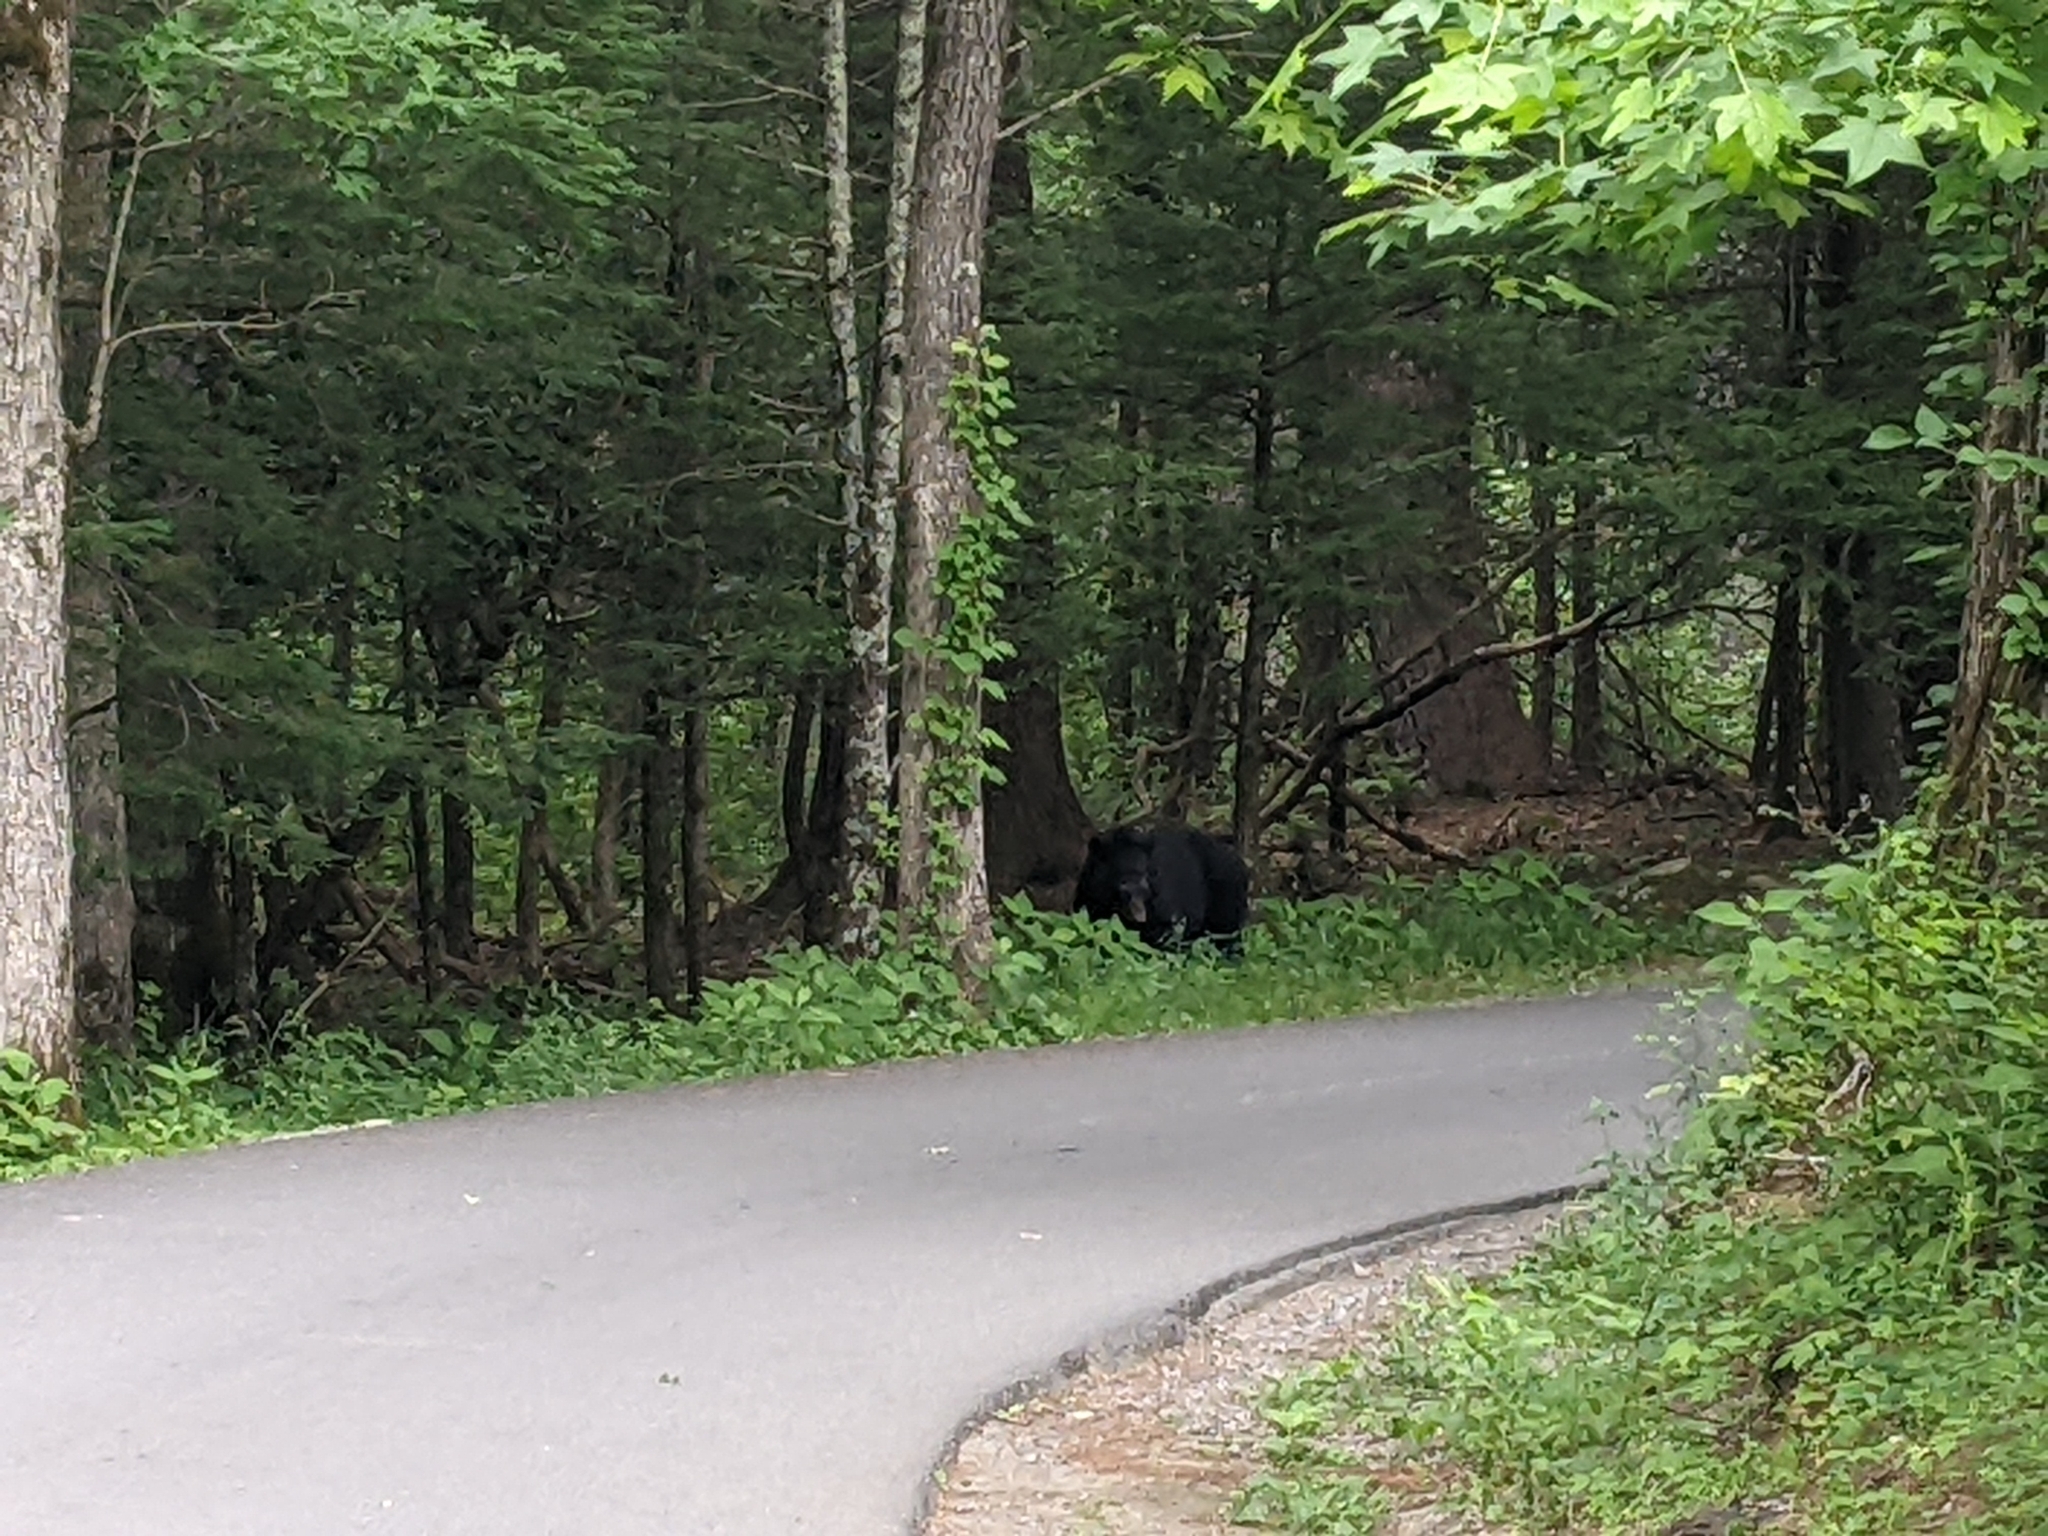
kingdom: Animalia
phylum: Chordata
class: Mammalia
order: Carnivora
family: Ursidae
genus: Ursus
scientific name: Ursus americanus
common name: American black bear
